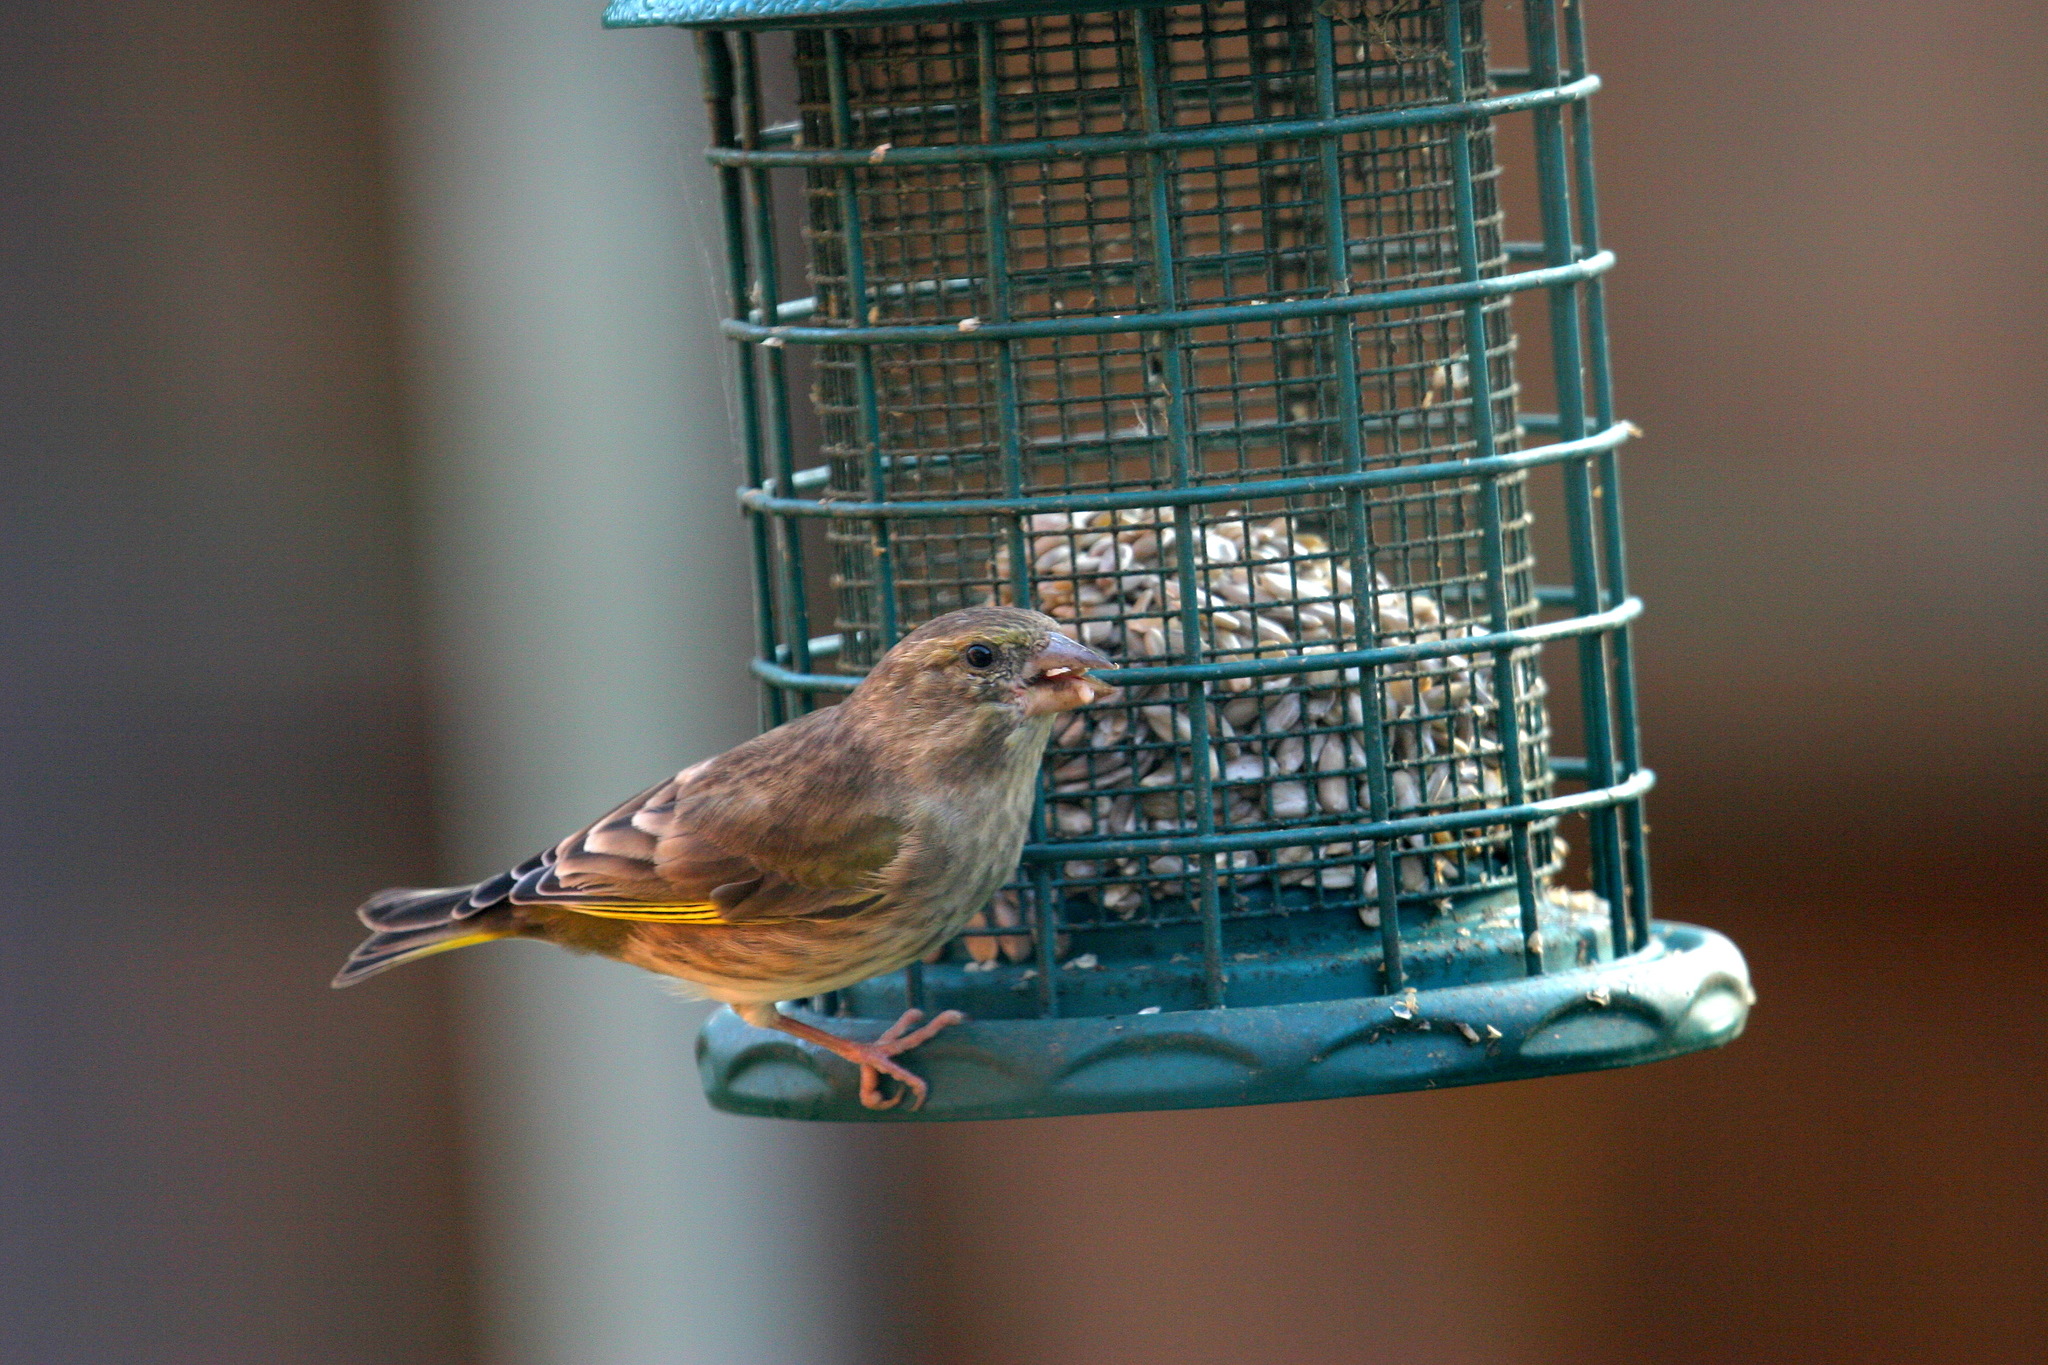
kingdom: Plantae
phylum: Tracheophyta
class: Liliopsida
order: Poales
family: Poaceae
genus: Chloris
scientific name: Chloris chloris
